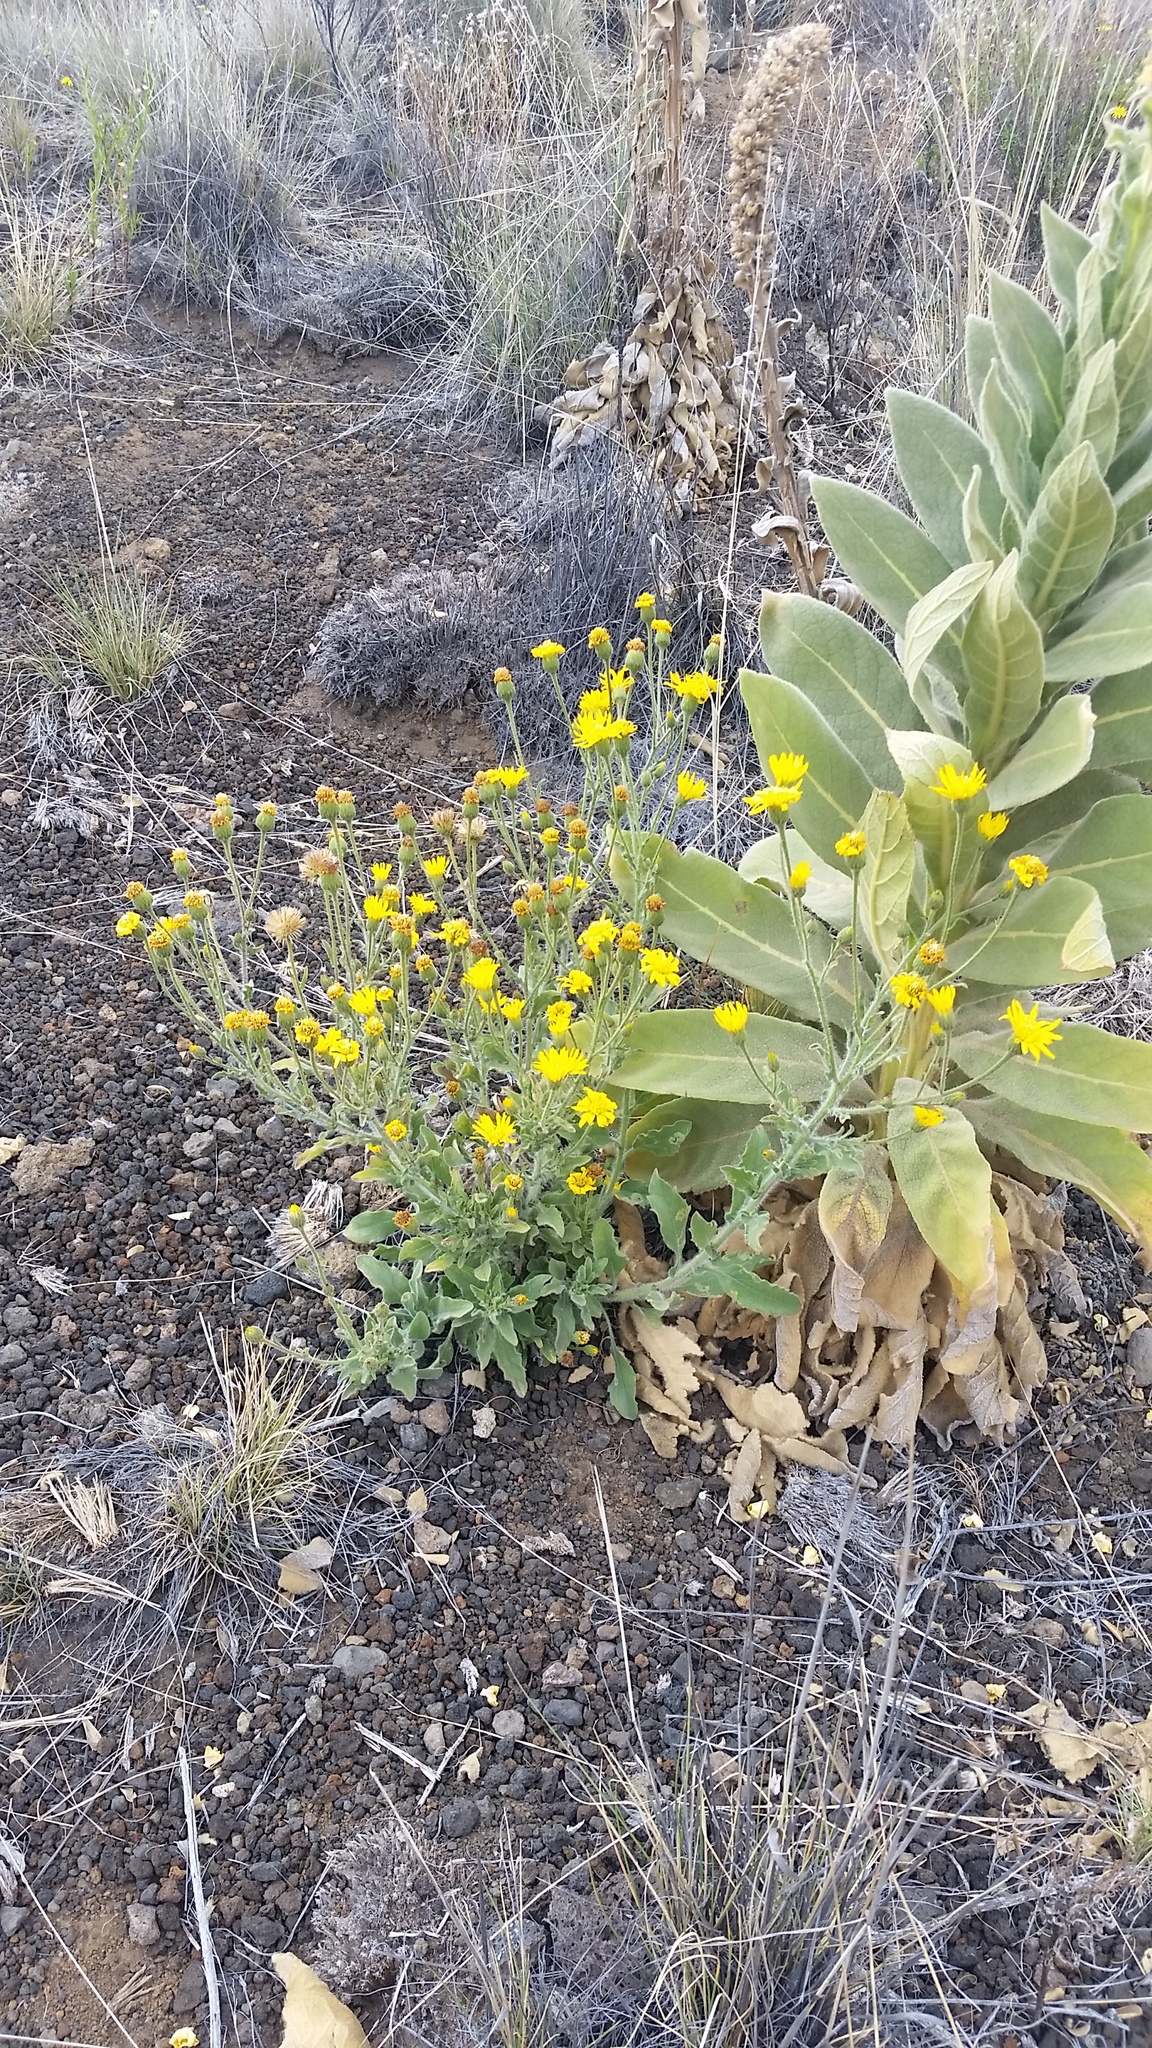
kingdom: Plantae
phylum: Tracheophyta
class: Magnoliopsida
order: Asterales
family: Asteraceae
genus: Heterotheca
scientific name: Heterotheca grandiflora
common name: Telegraphweed
